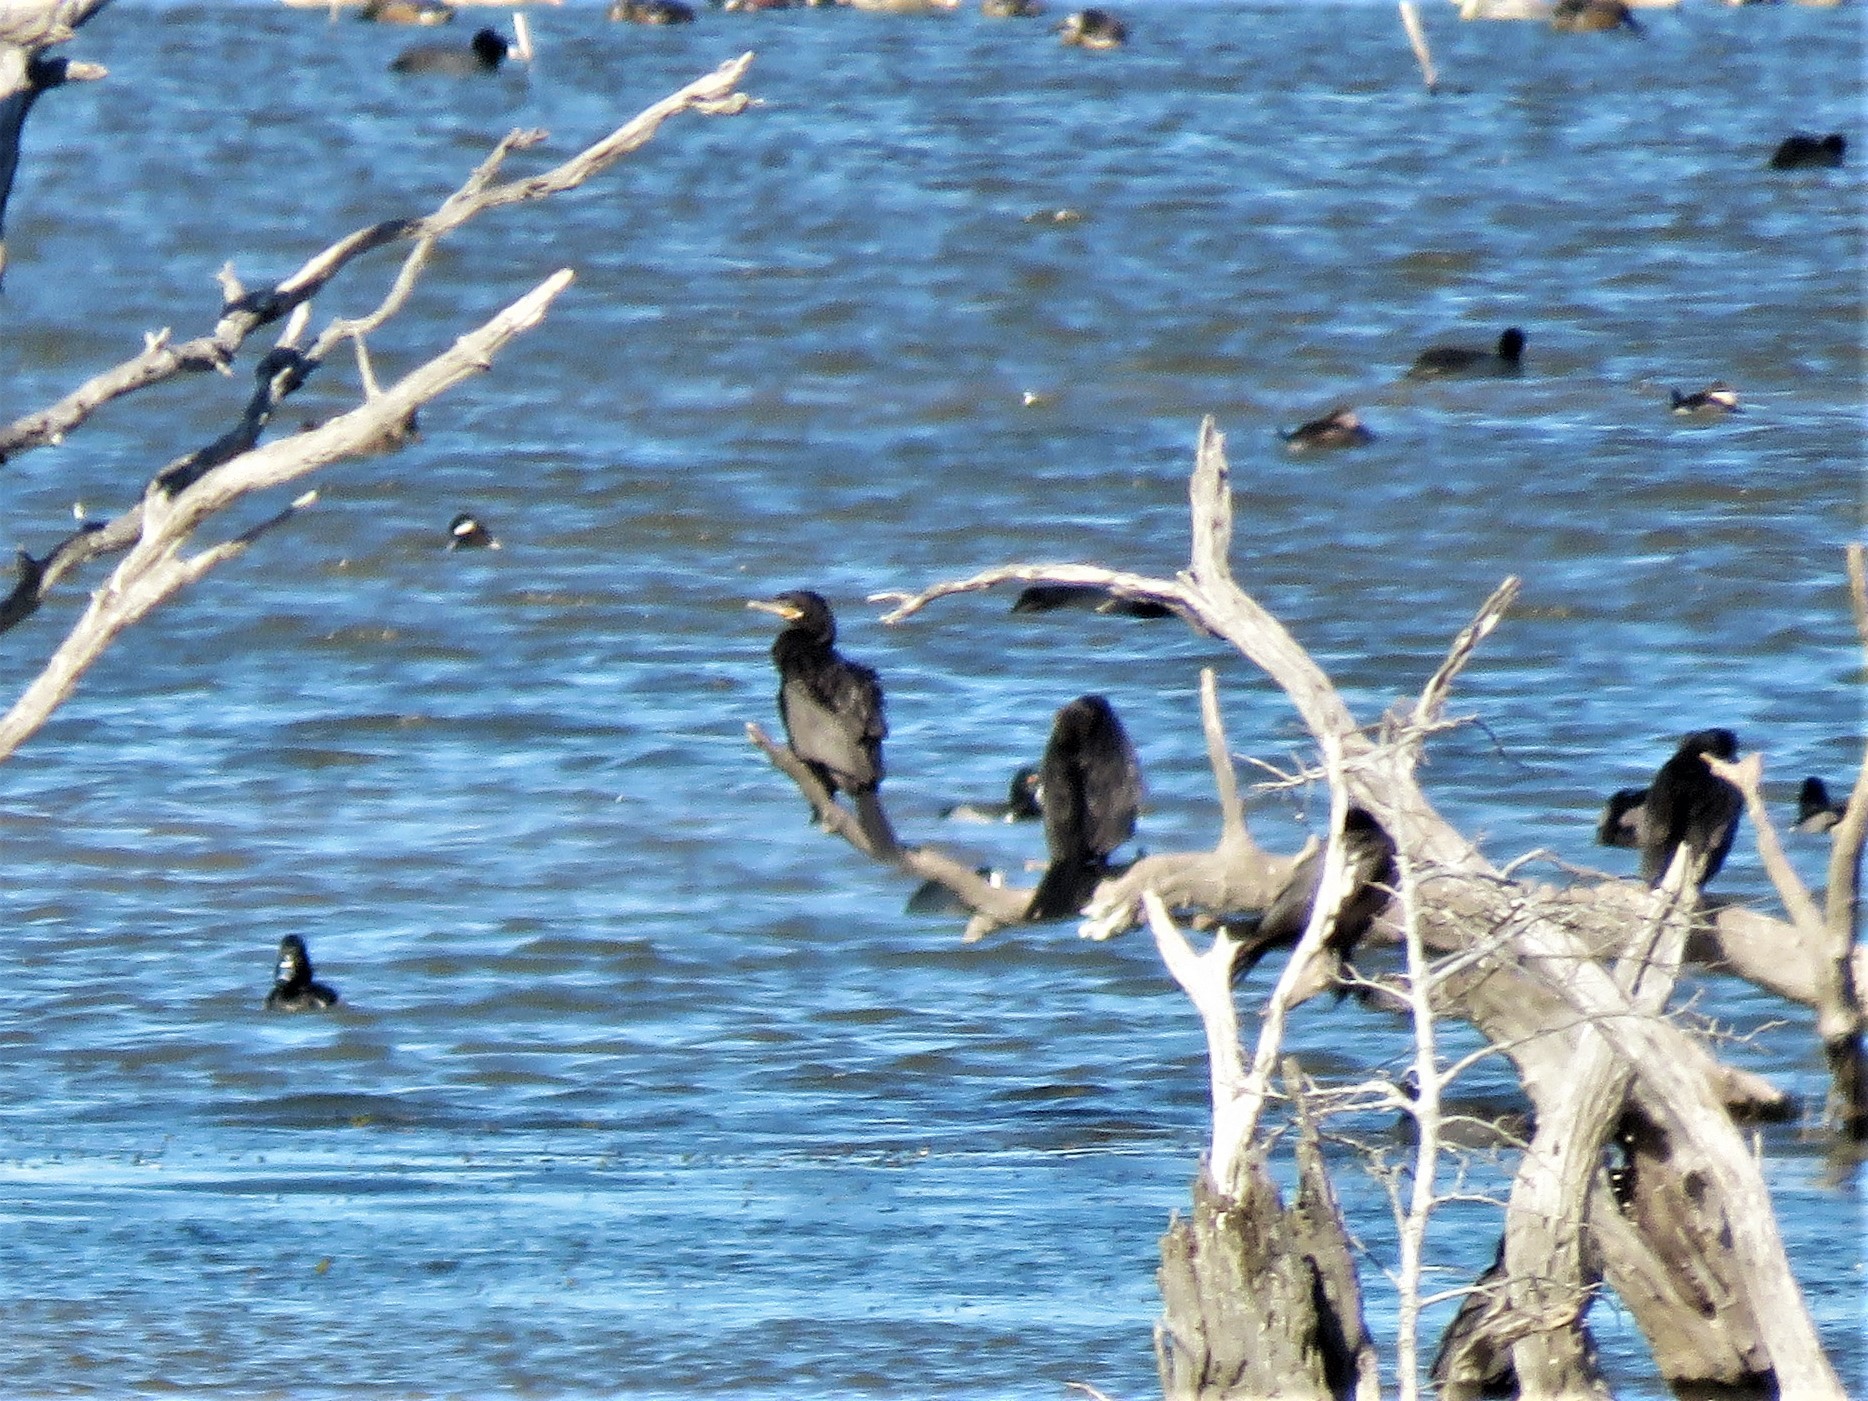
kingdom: Animalia
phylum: Chordata
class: Aves
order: Suliformes
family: Phalacrocoracidae
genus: Phalacrocorax
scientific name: Phalacrocorax brasilianus
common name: Neotropic cormorant
